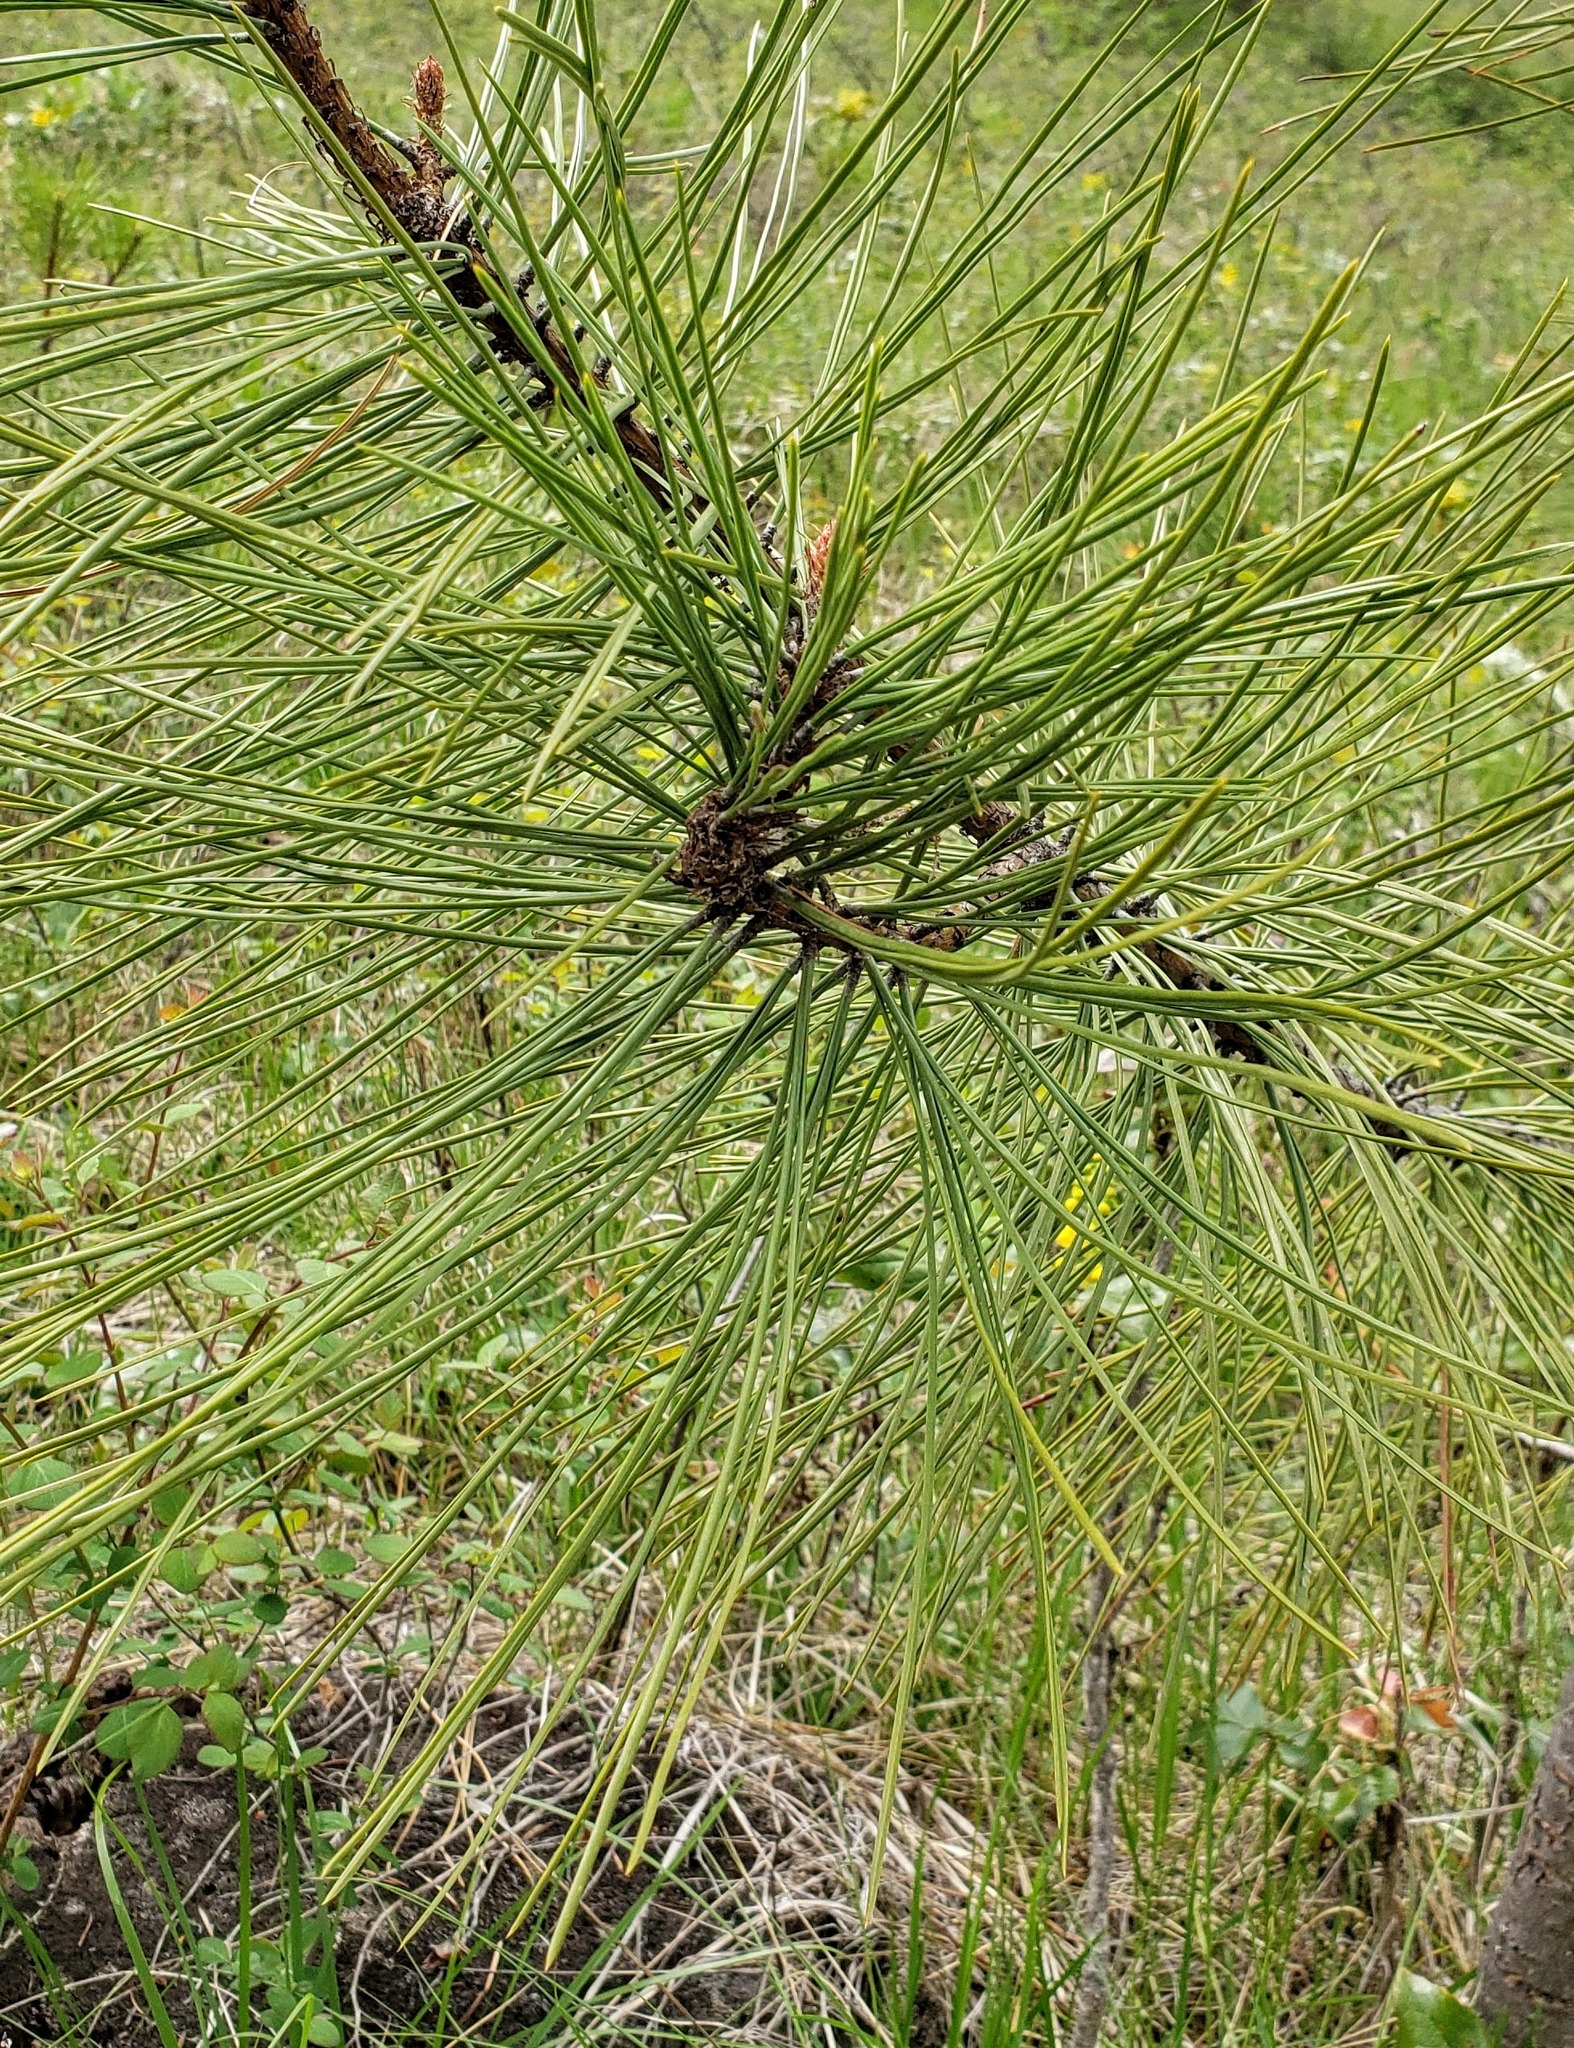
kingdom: Plantae
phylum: Tracheophyta
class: Pinopsida
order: Pinales
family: Pinaceae
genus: Pinus
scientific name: Pinus ponderosa
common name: Western yellow-pine
